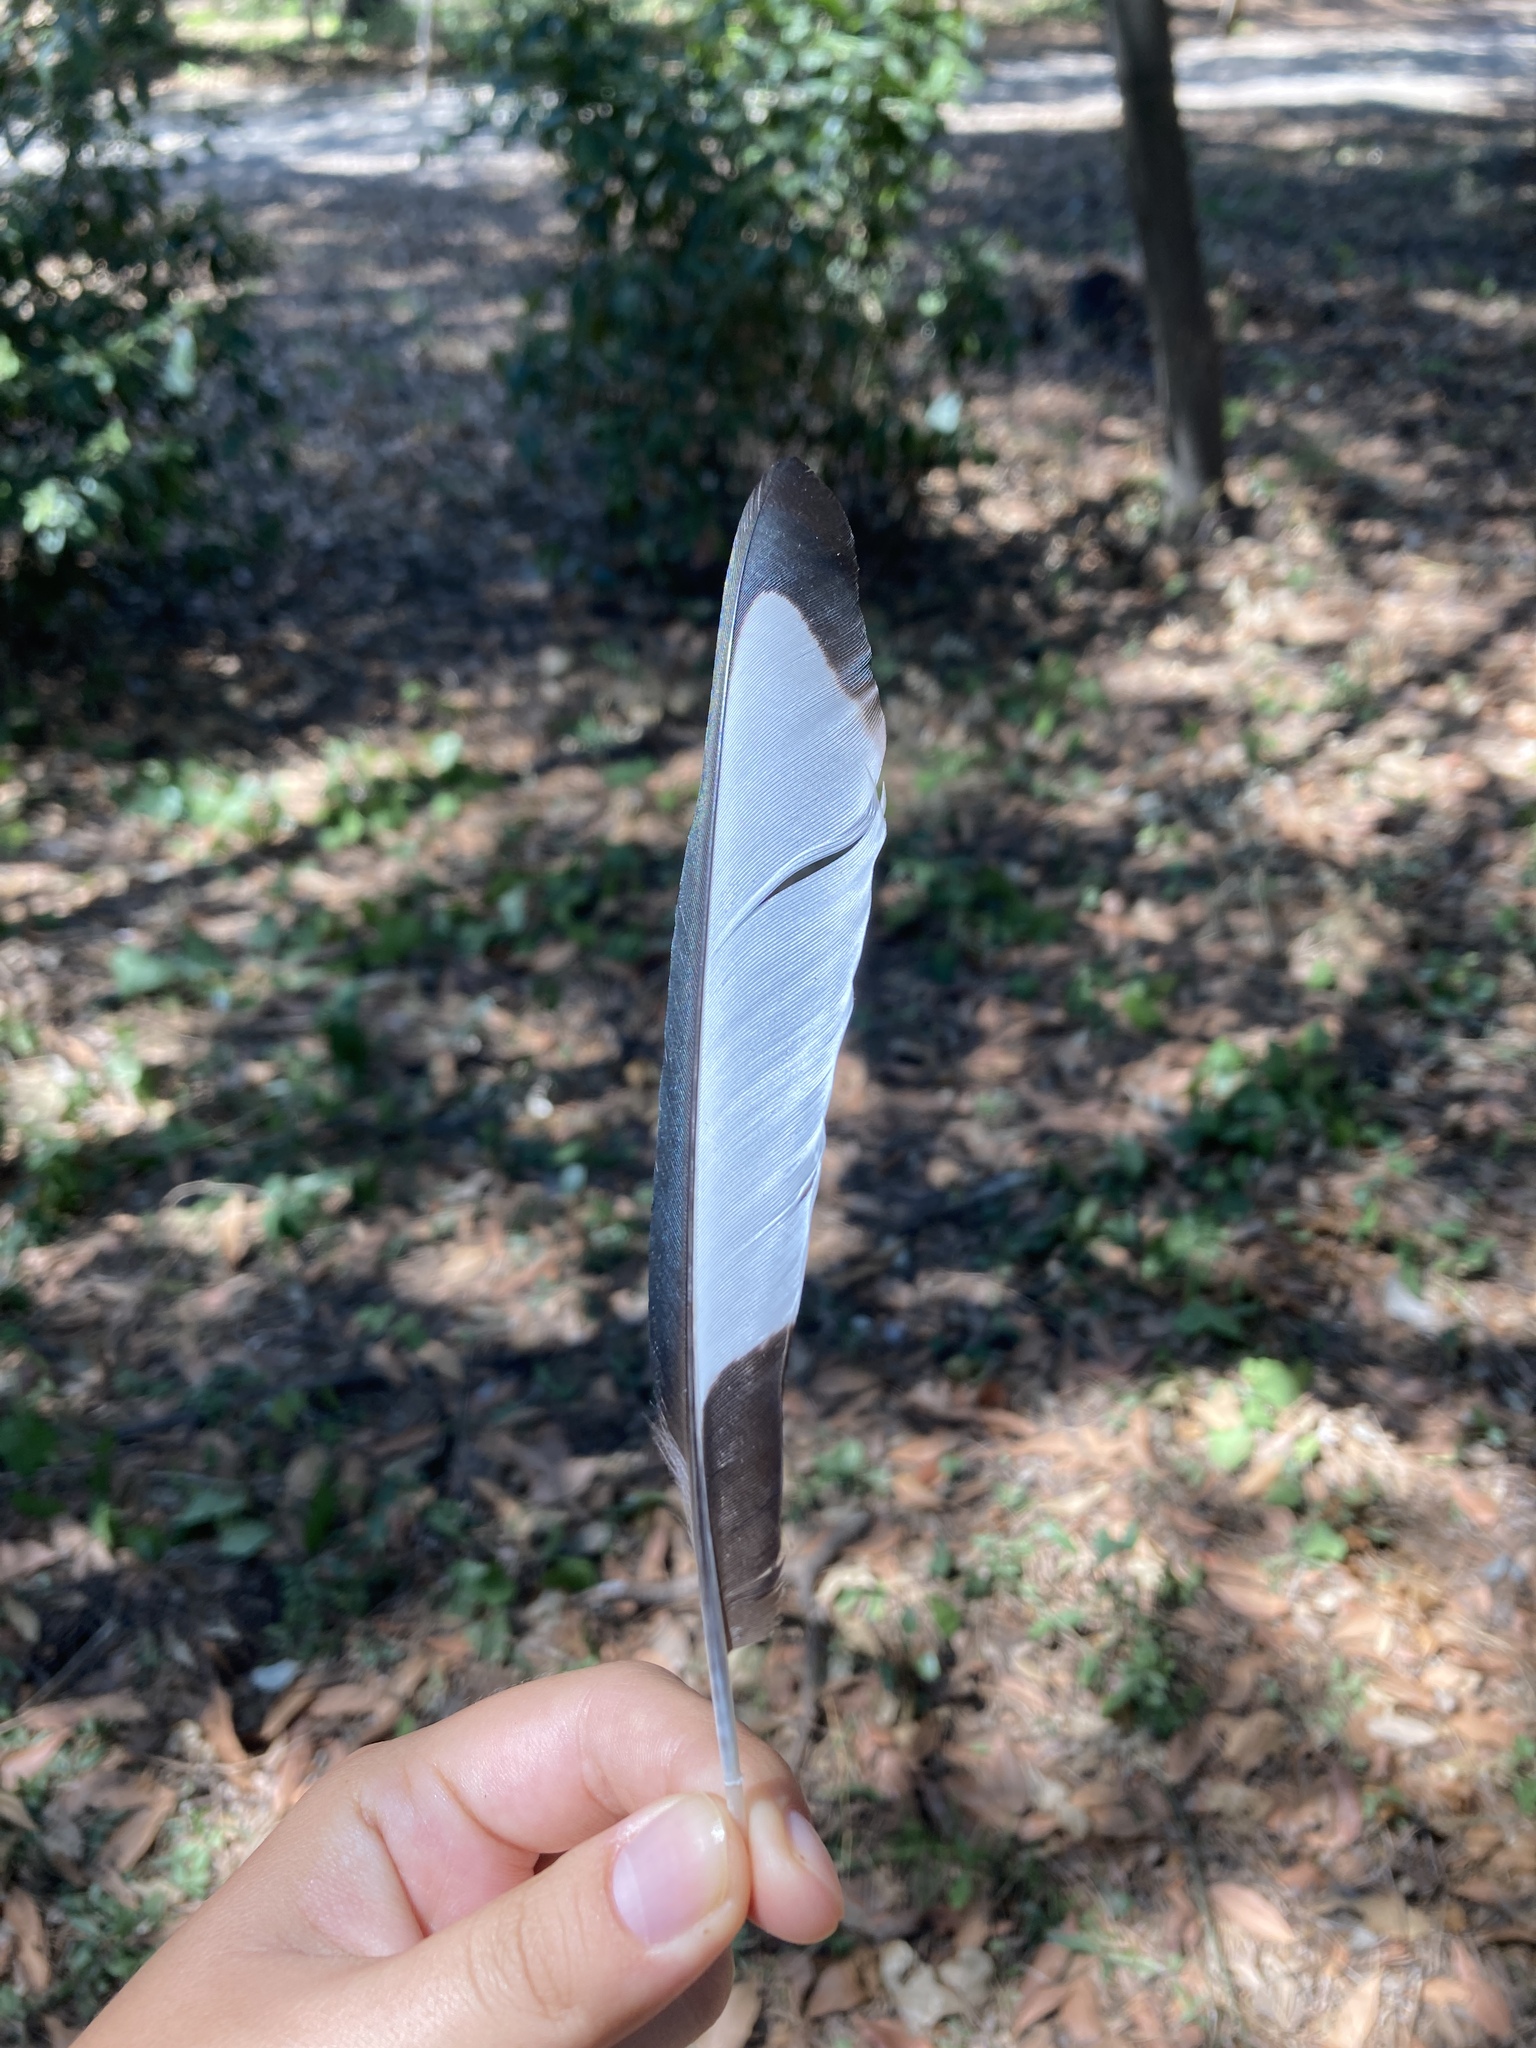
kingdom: Animalia
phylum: Chordata
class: Aves
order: Passeriformes
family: Corvidae
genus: Pica
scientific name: Pica pica
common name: Eurasian magpie
